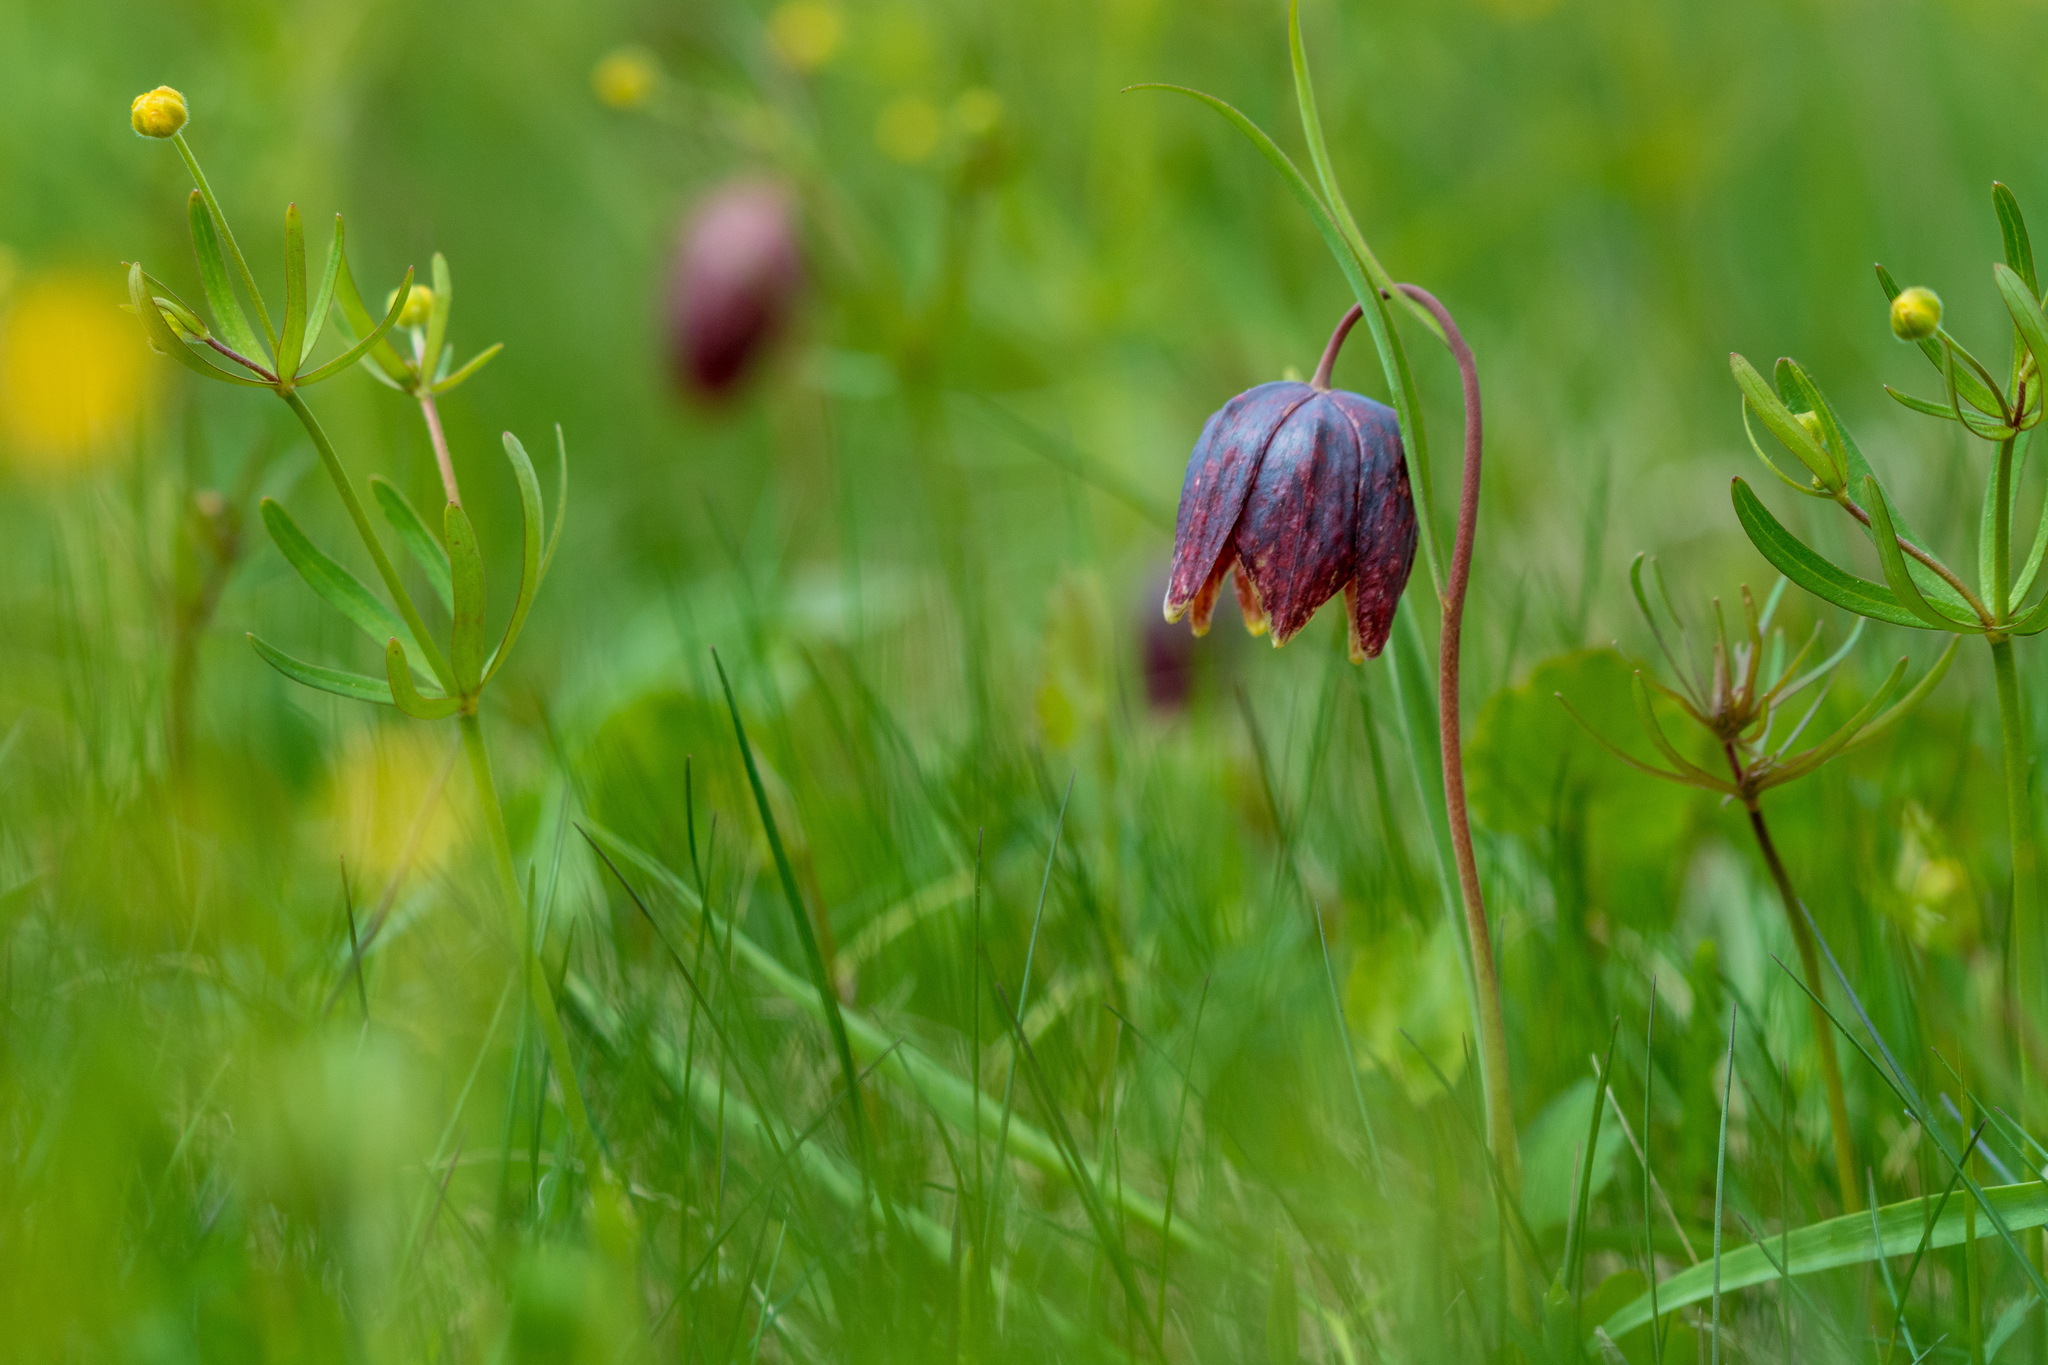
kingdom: Plantae
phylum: Tracheophyta
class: Liliopsida
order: Liliales
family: Liliaceae
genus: Fritillaria
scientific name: Fritillaria meleagris
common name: Fritillary
